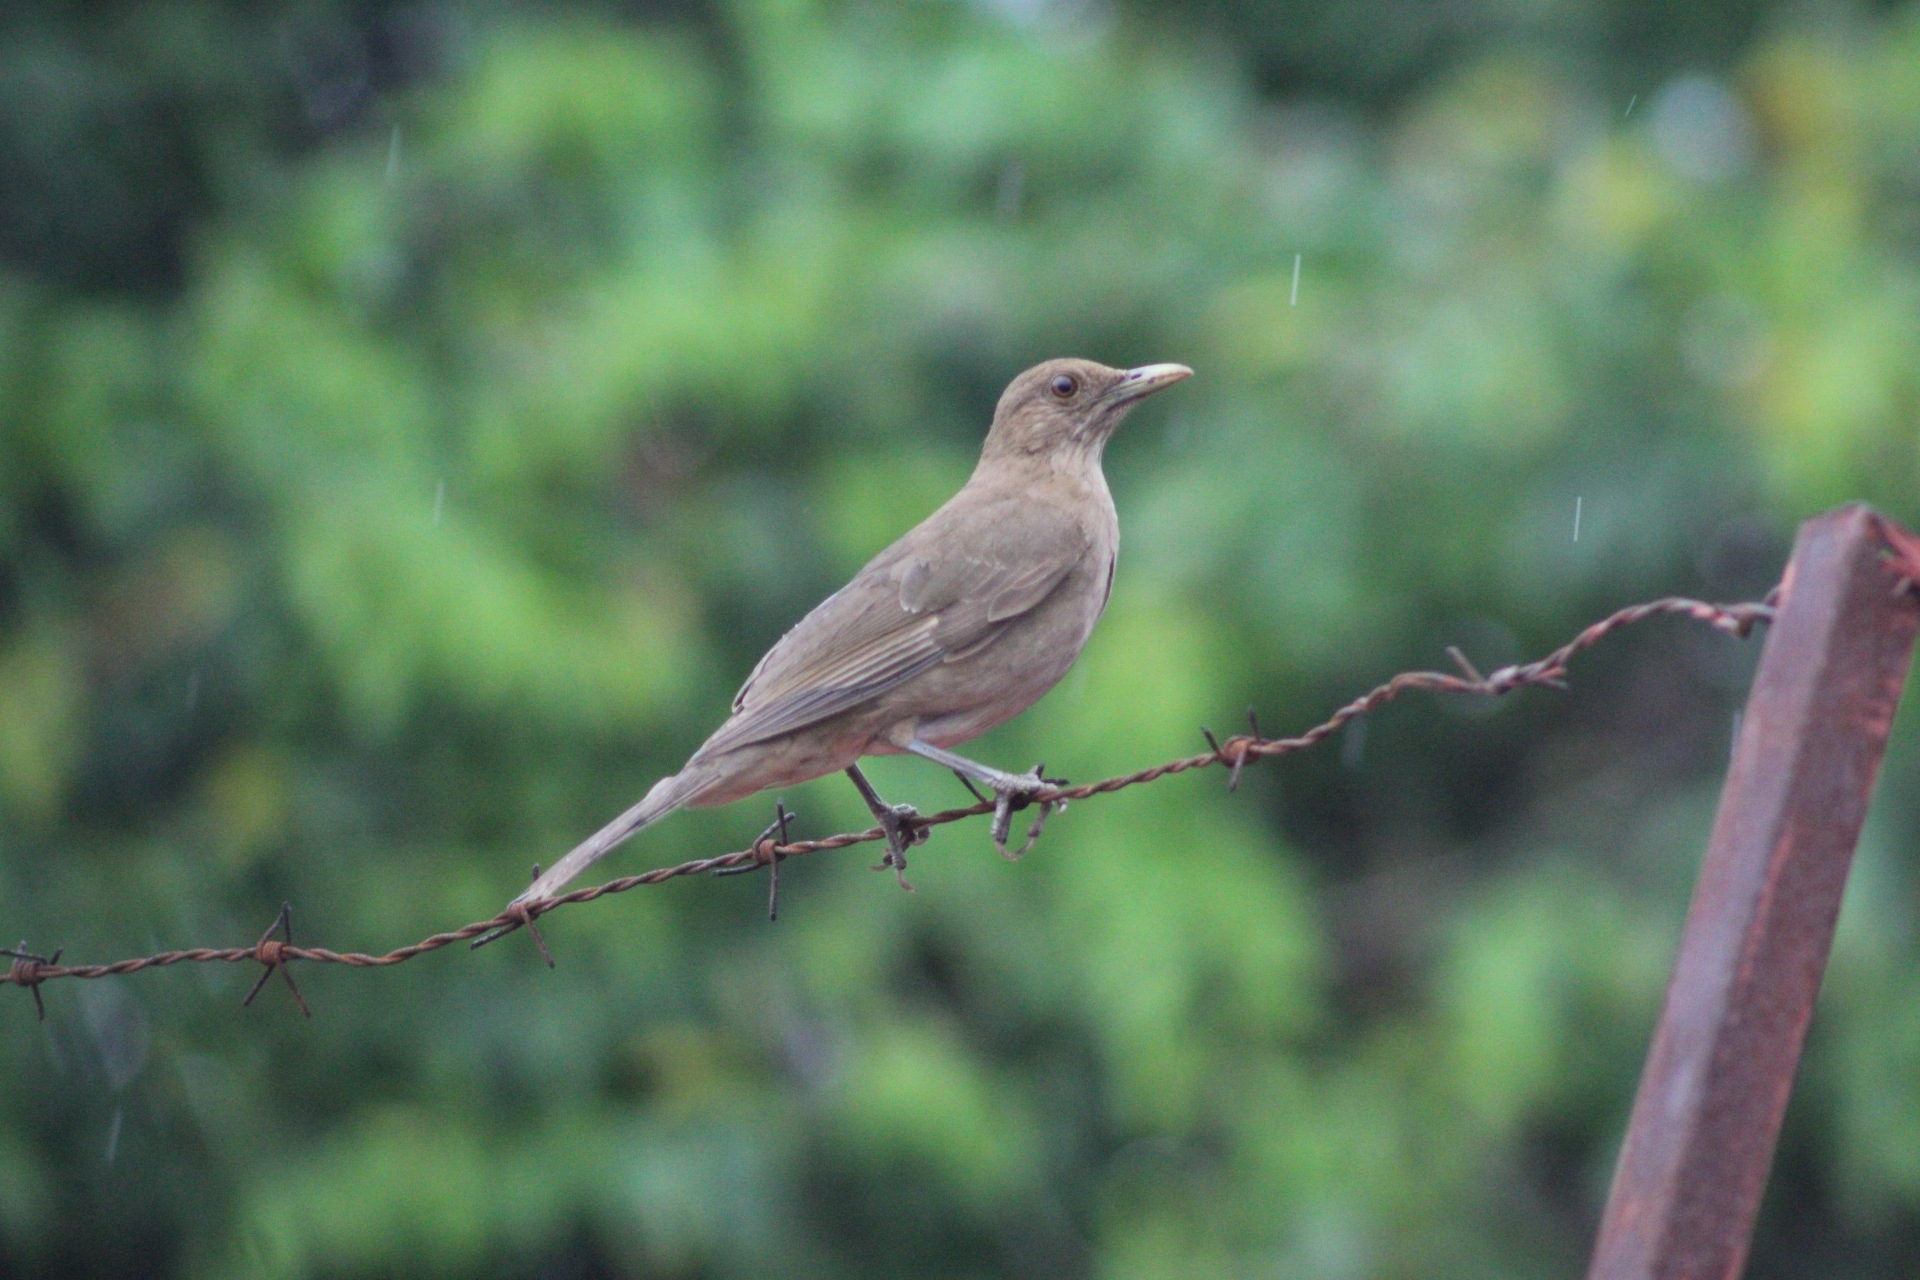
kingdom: Animalia
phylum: Chordata
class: Aves
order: Passeriformes
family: Turdidae
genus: Turdus
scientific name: Turdus grayi
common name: Clay-colored thrush
